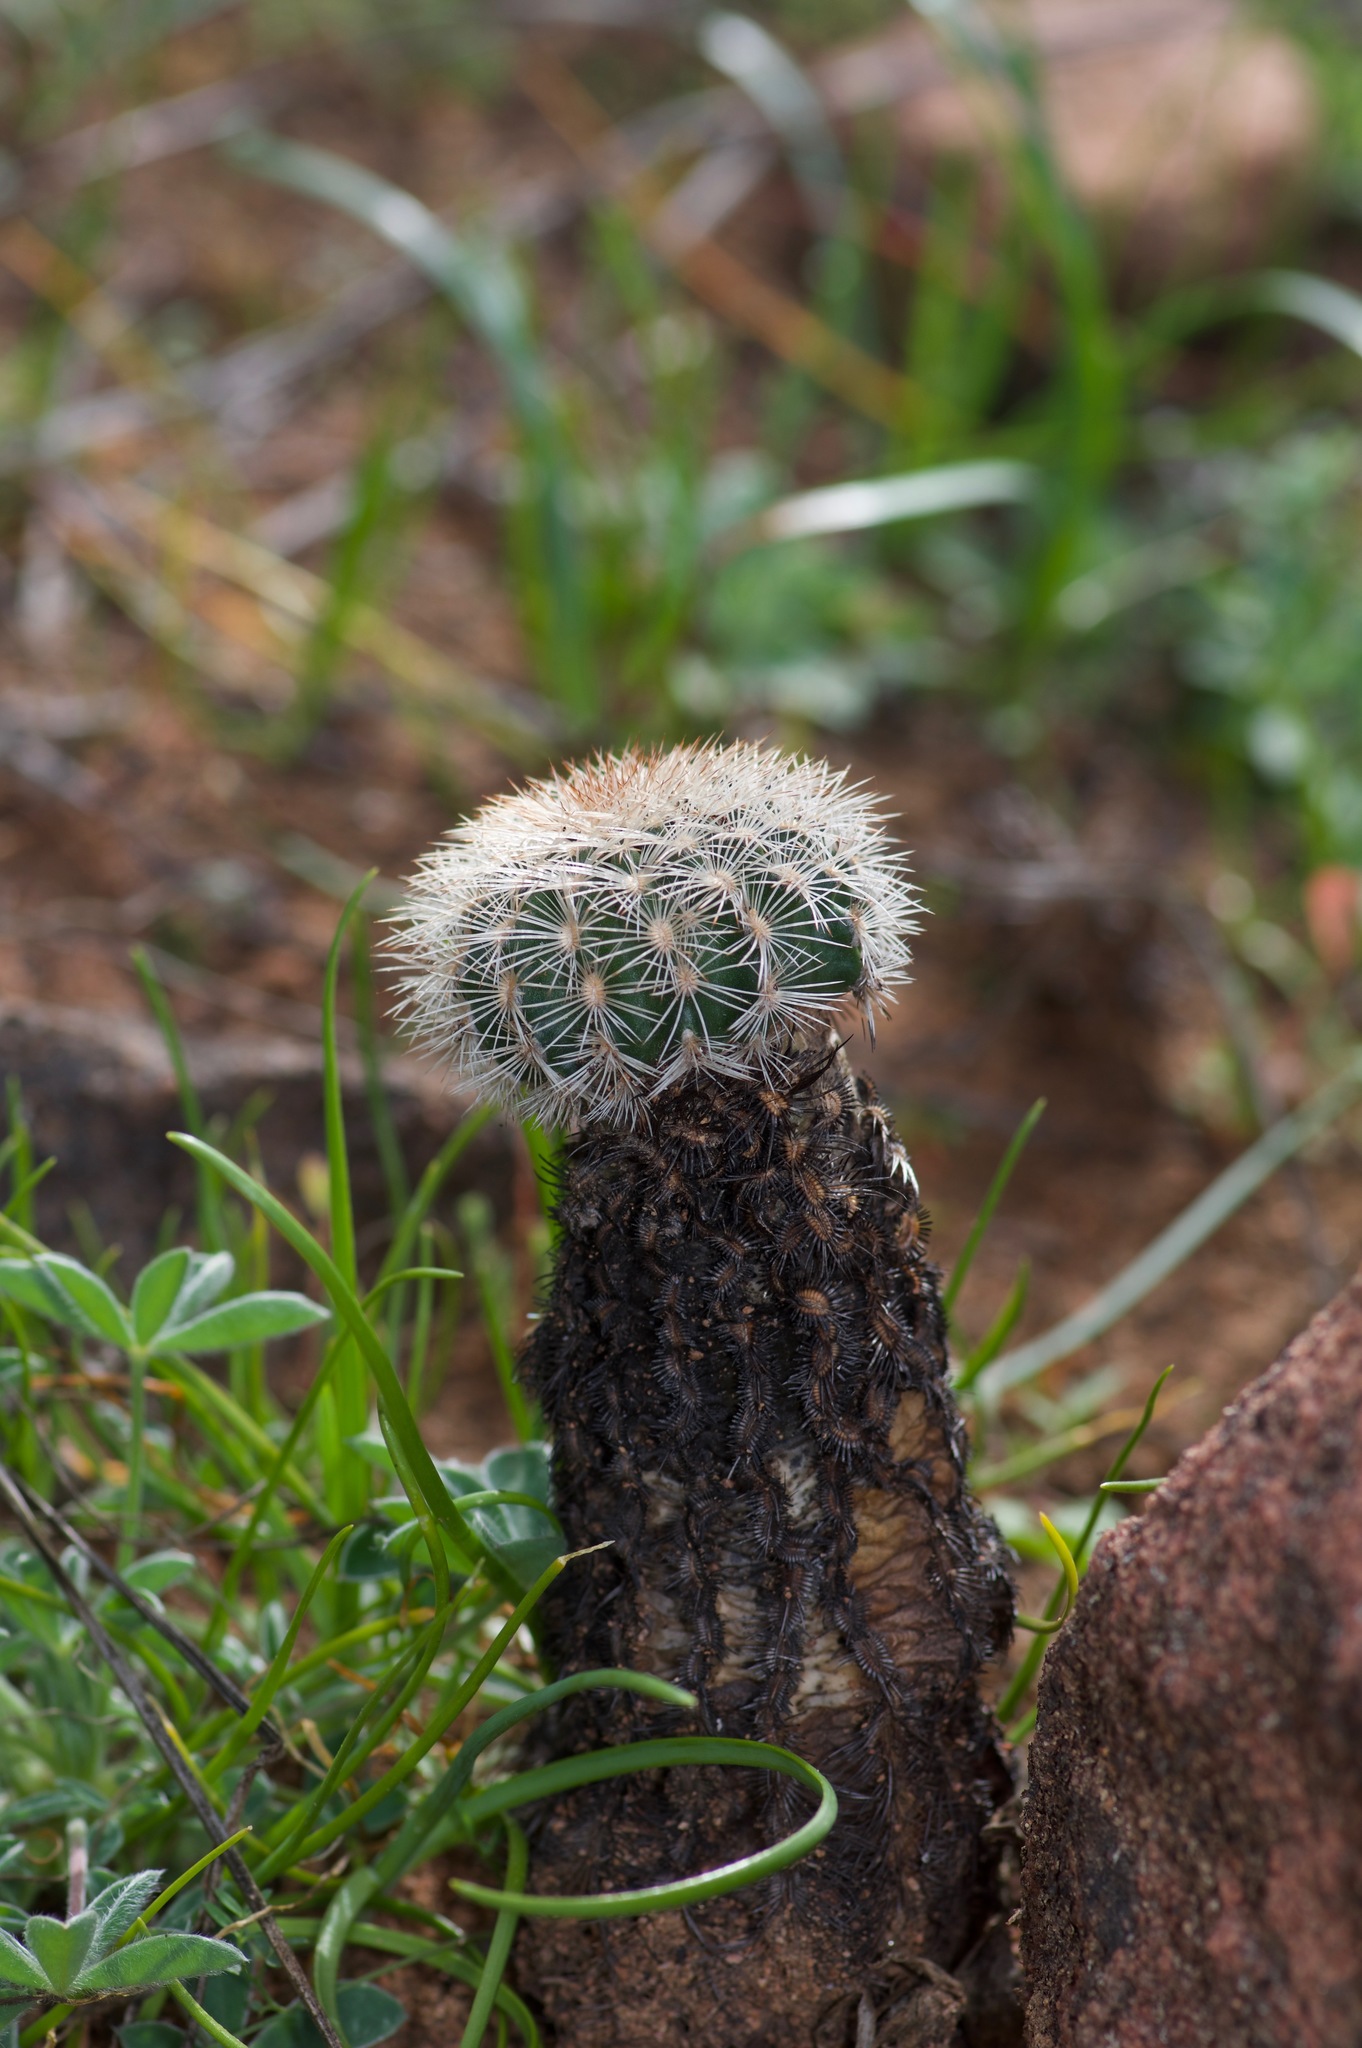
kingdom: Plantae
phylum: Tracheophyta
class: Magnoliopsida
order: Caryophyllales
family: Cactaceae
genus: Echinocereus
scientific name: Echinocereus reichenbachii
